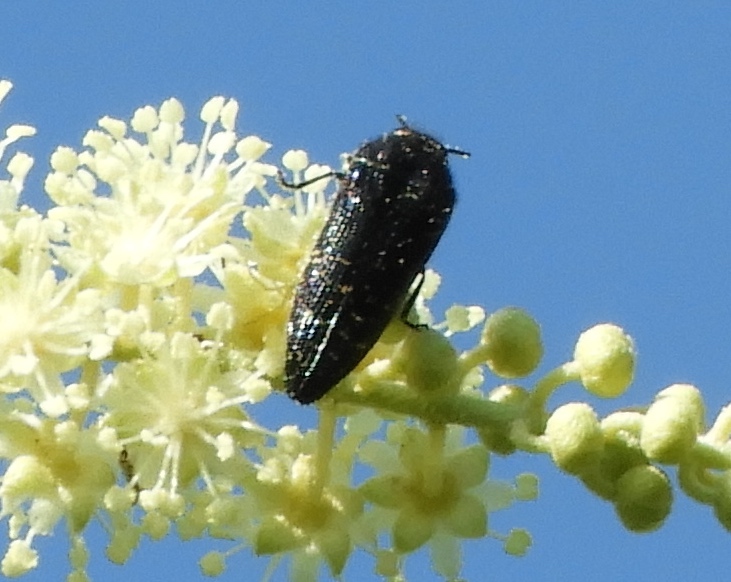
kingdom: Animalia
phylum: Arthropoda
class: Insecta
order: Coleoptera
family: Buprestidae
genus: Acmaeodera
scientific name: Acmaeodera impluviata
